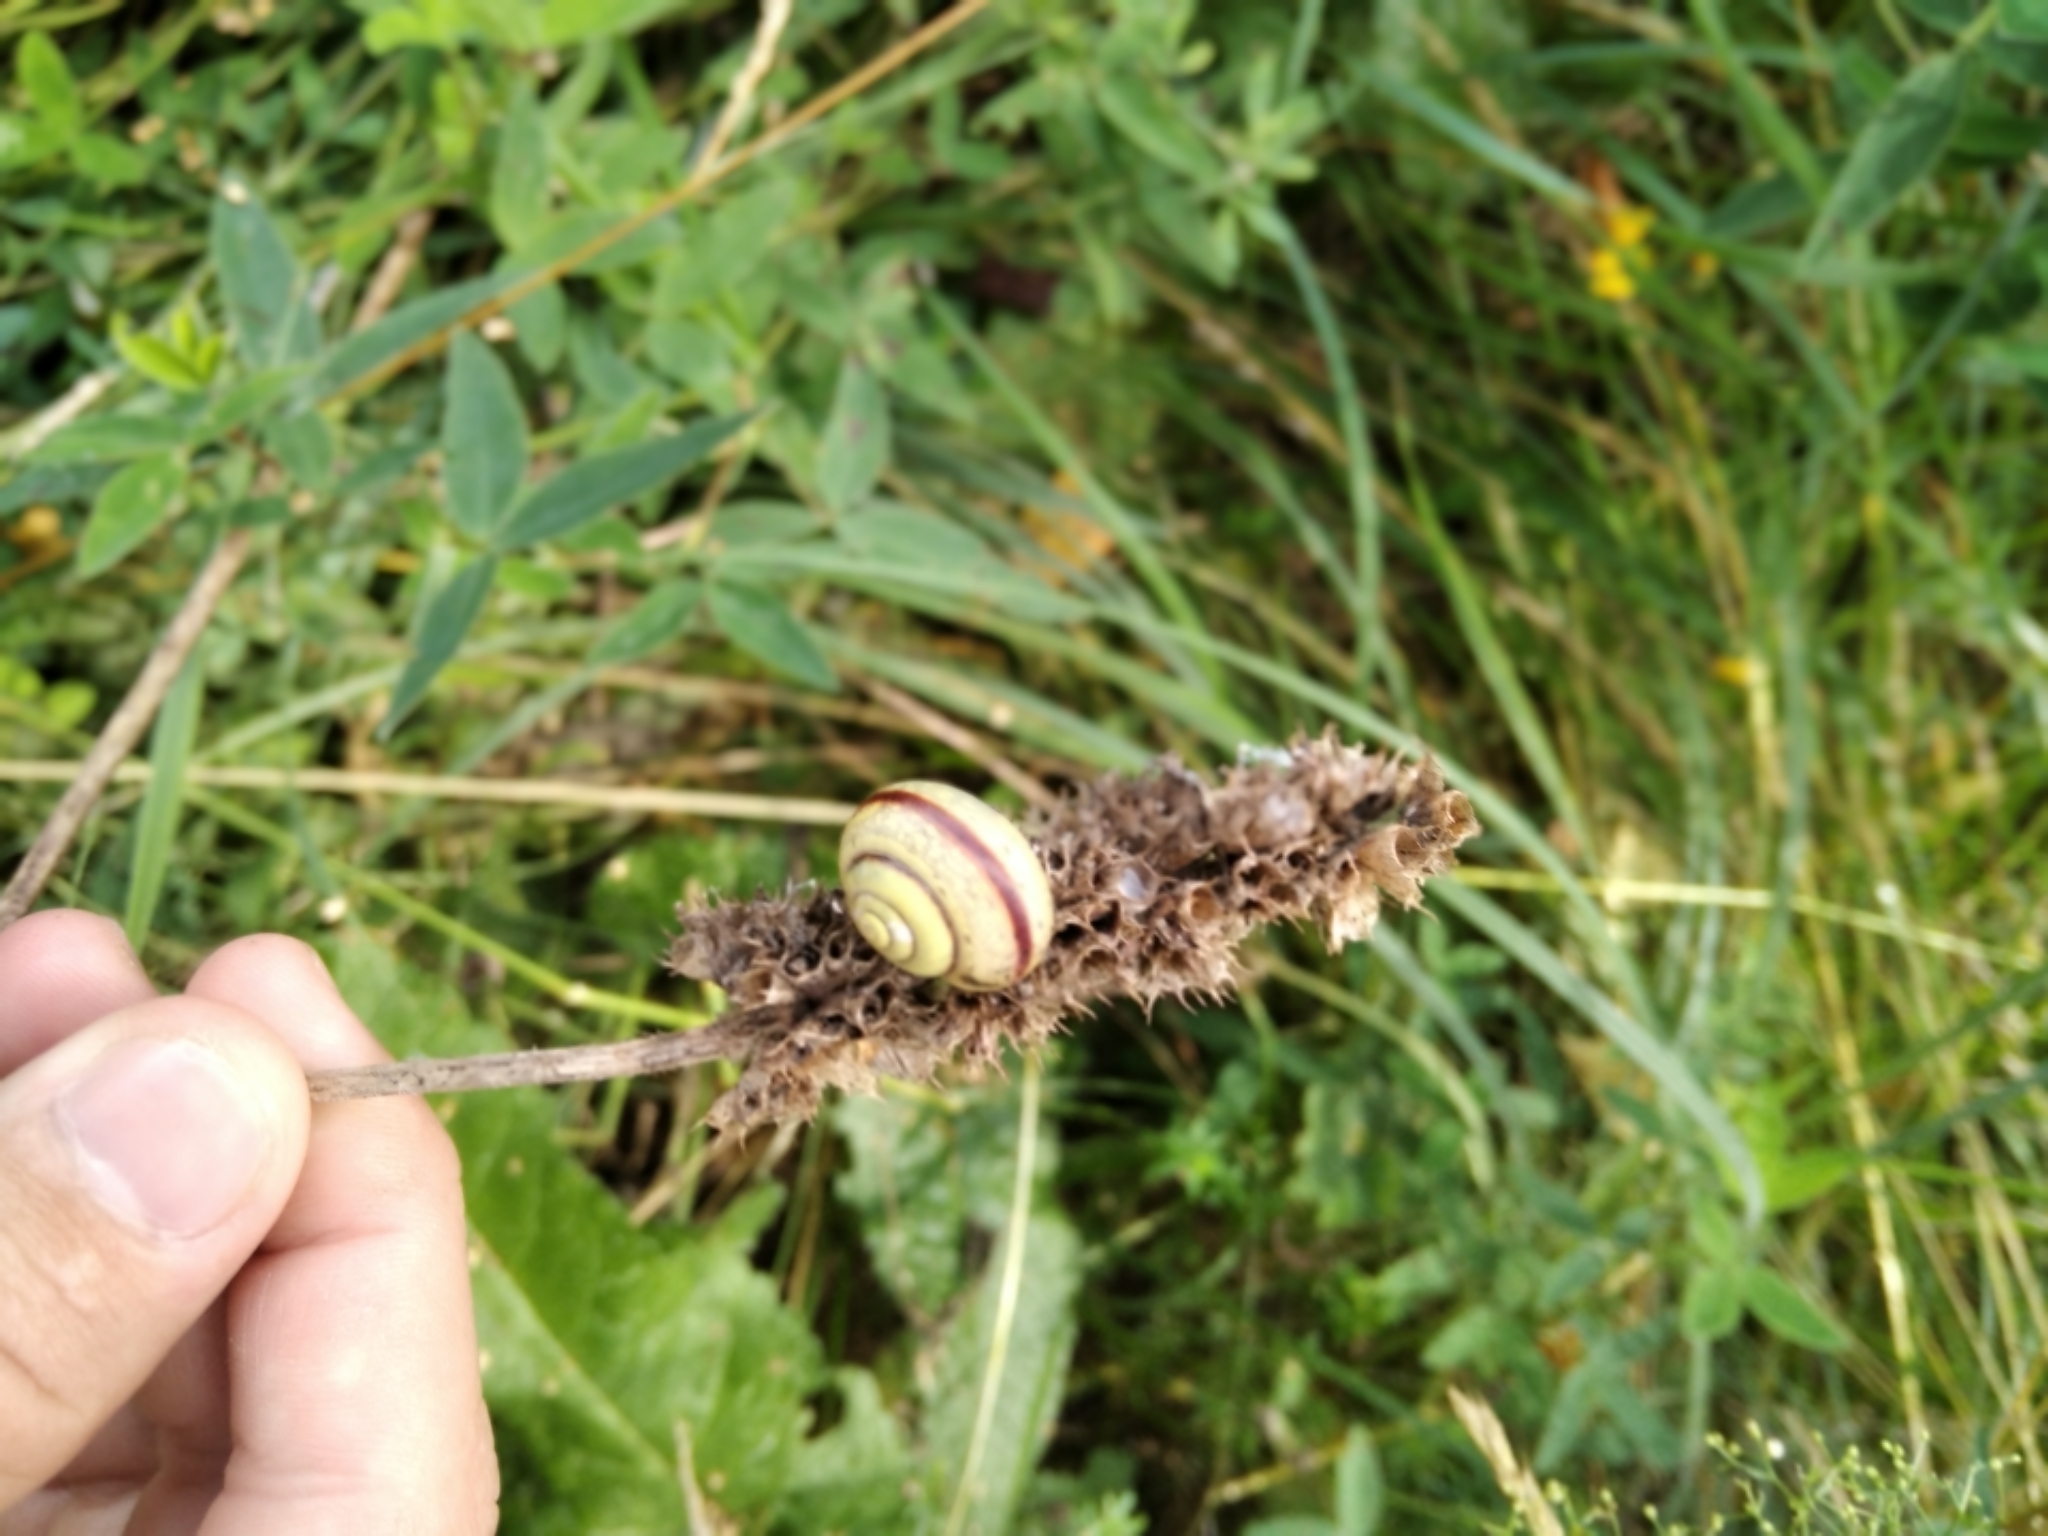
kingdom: Animalia
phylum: Mollusca
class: Gastropoda
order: Stylommatophora
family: Camaenidae
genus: Fruticicola
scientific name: Fruticicola fruticum
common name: Bush snail
